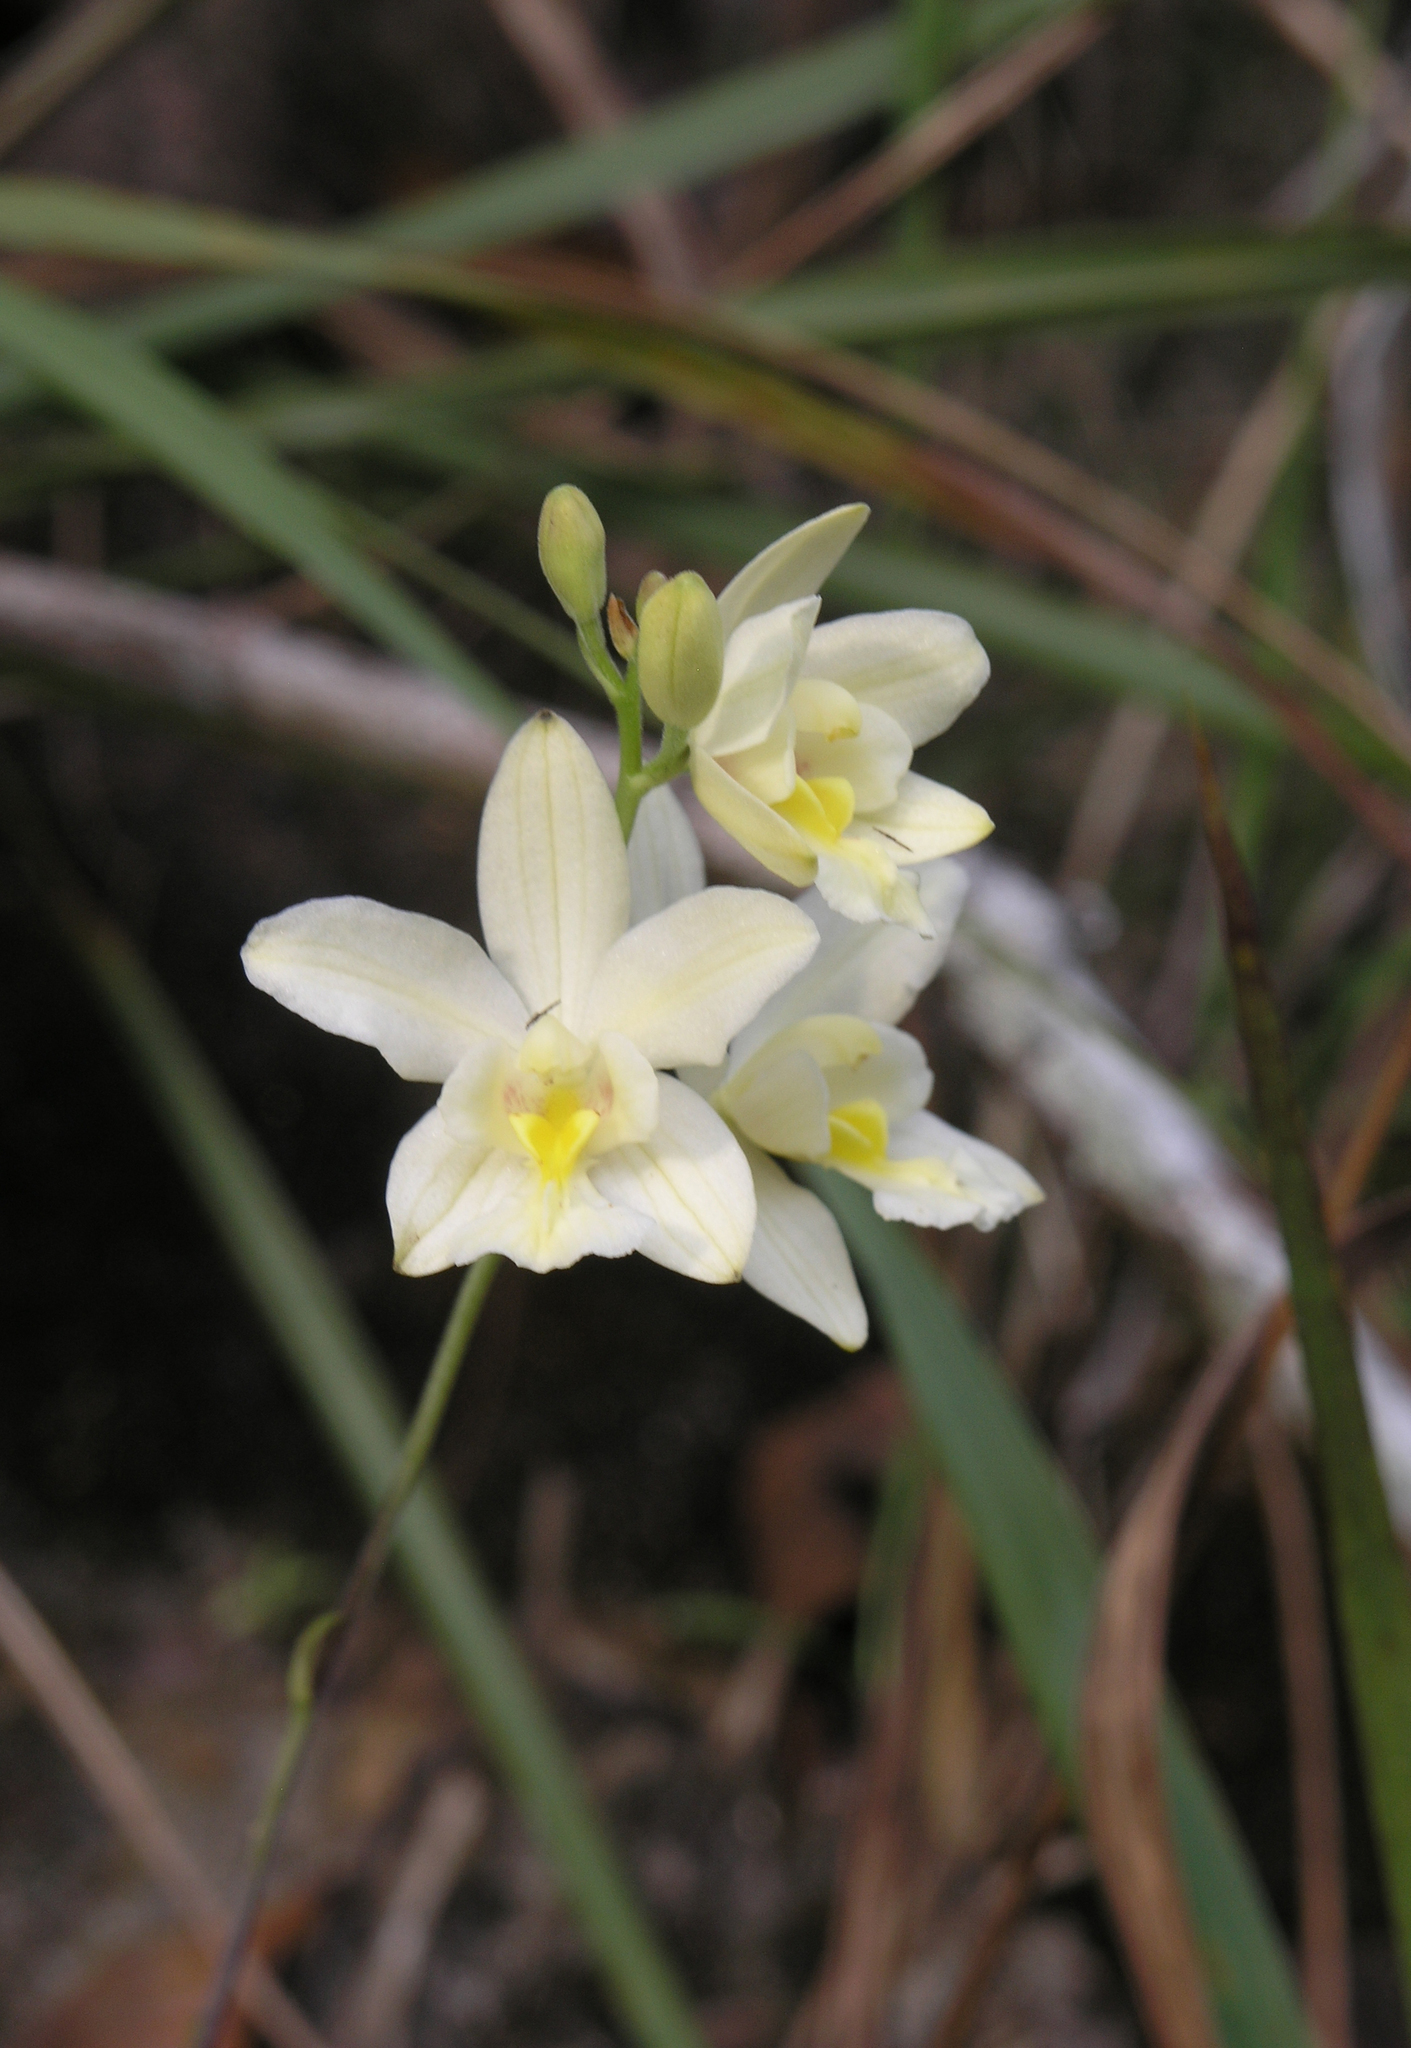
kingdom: Plantae
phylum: Tracheophyta
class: Liliopsida
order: Asparagales
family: Orchidaceae
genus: Spathoglottis
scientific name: Spathoglottis eburnea
